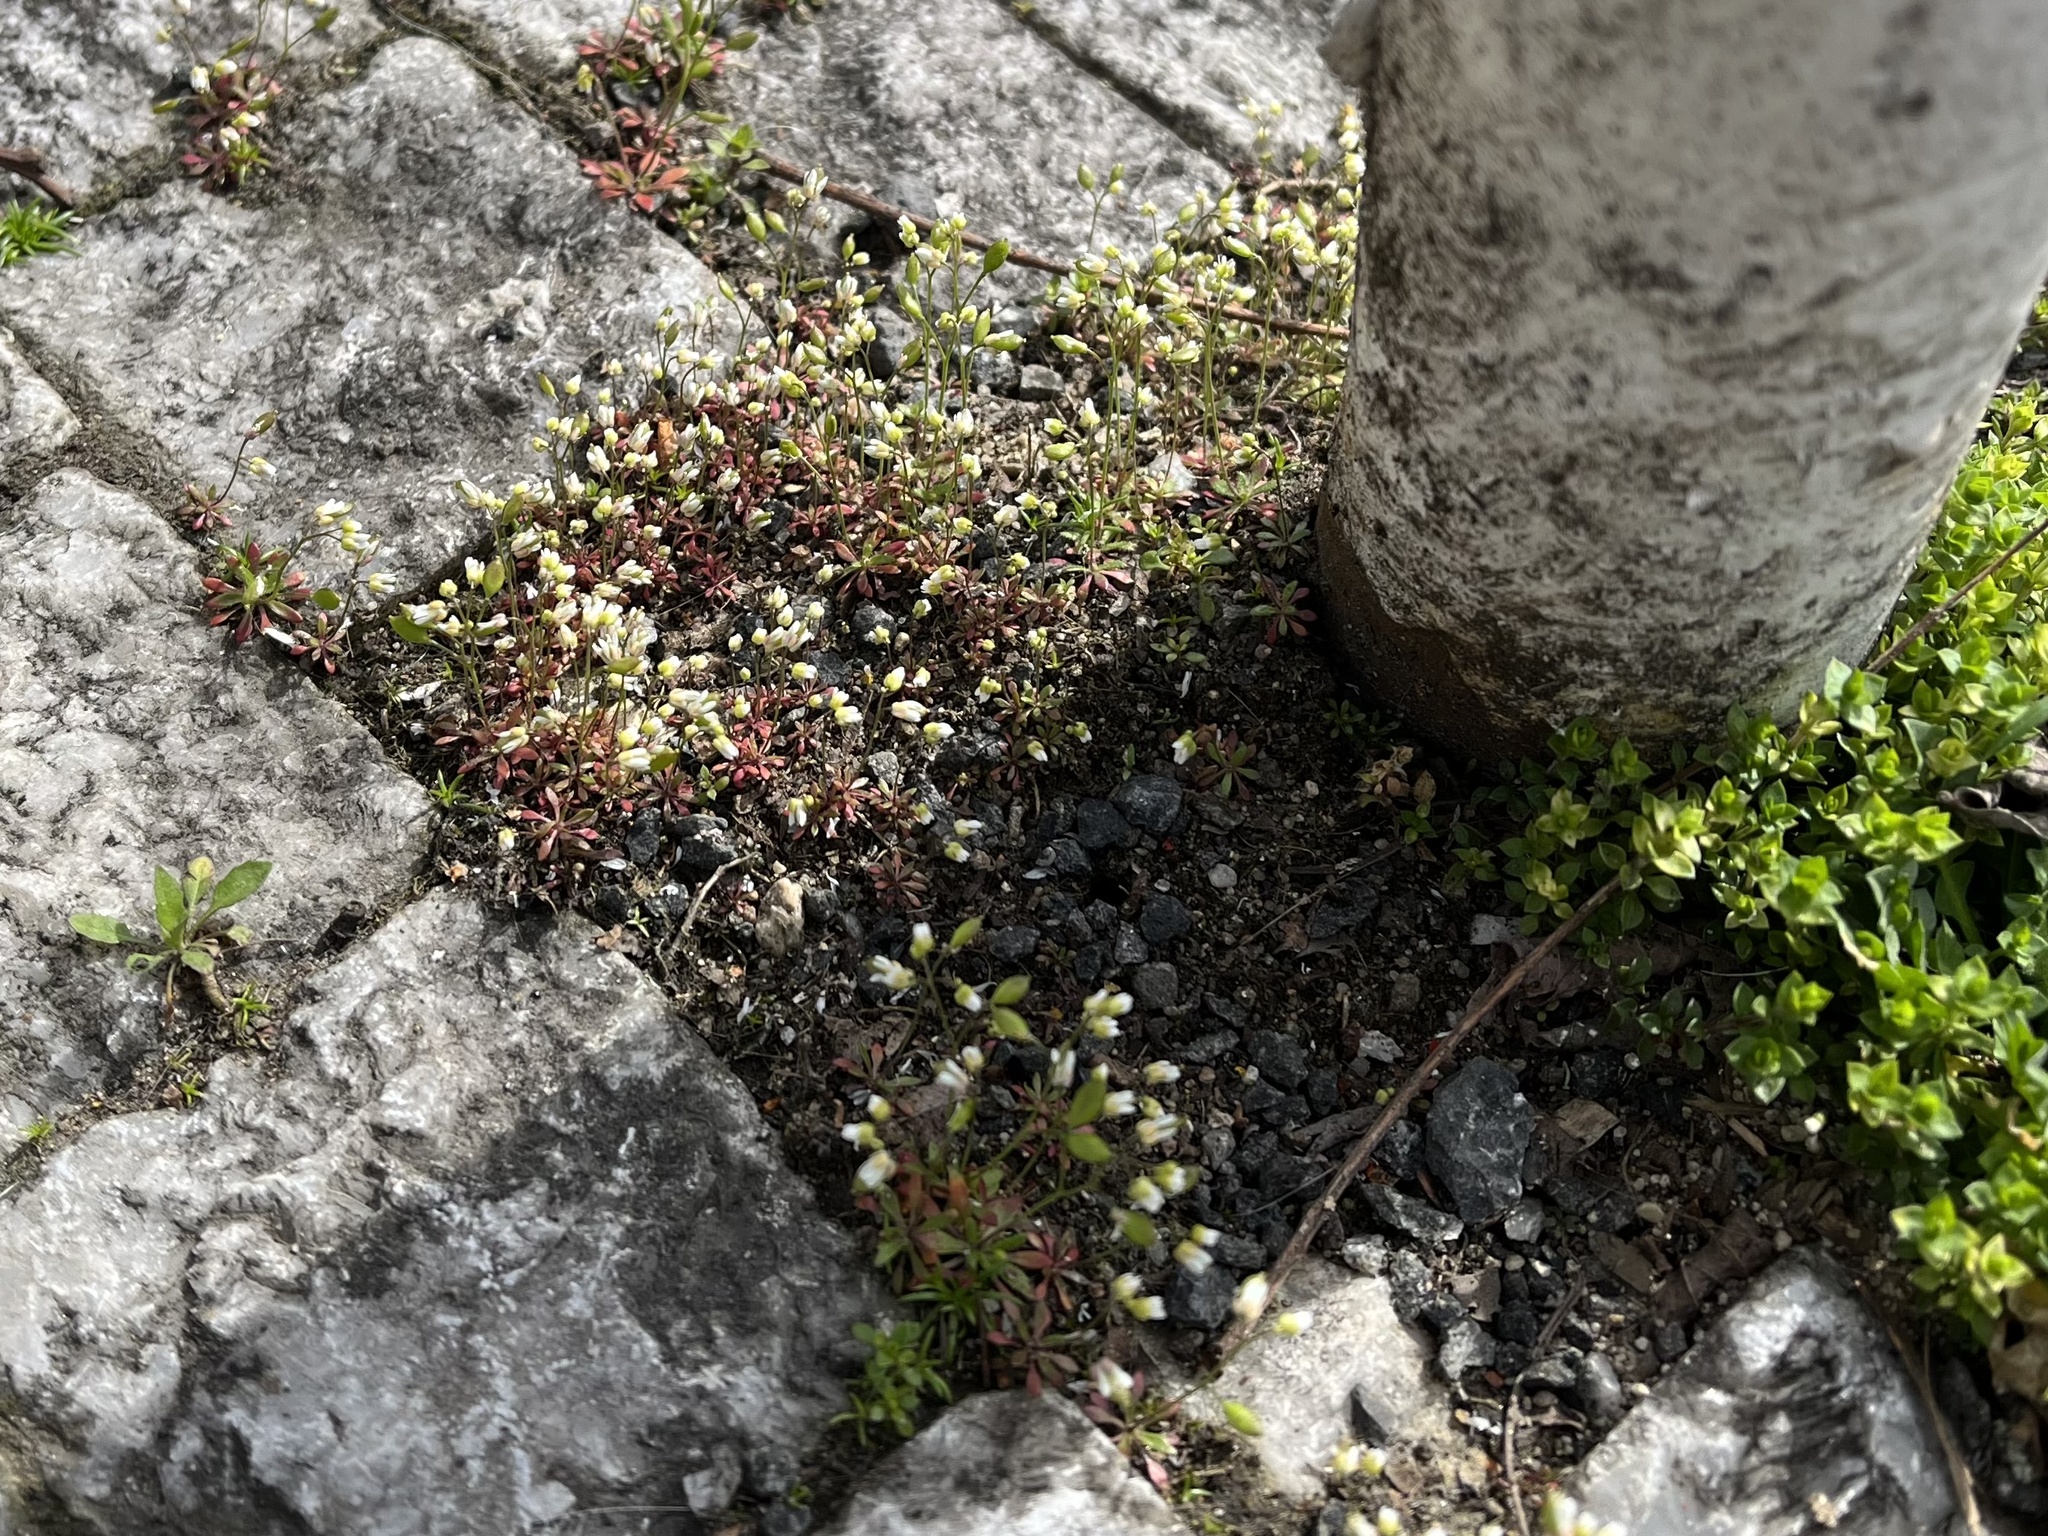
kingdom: Plantae
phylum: Tracheophyta
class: Magnoliopsida
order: Brassicales
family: Brassicaceae
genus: Draba
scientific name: Draba verna
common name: Spring draba
